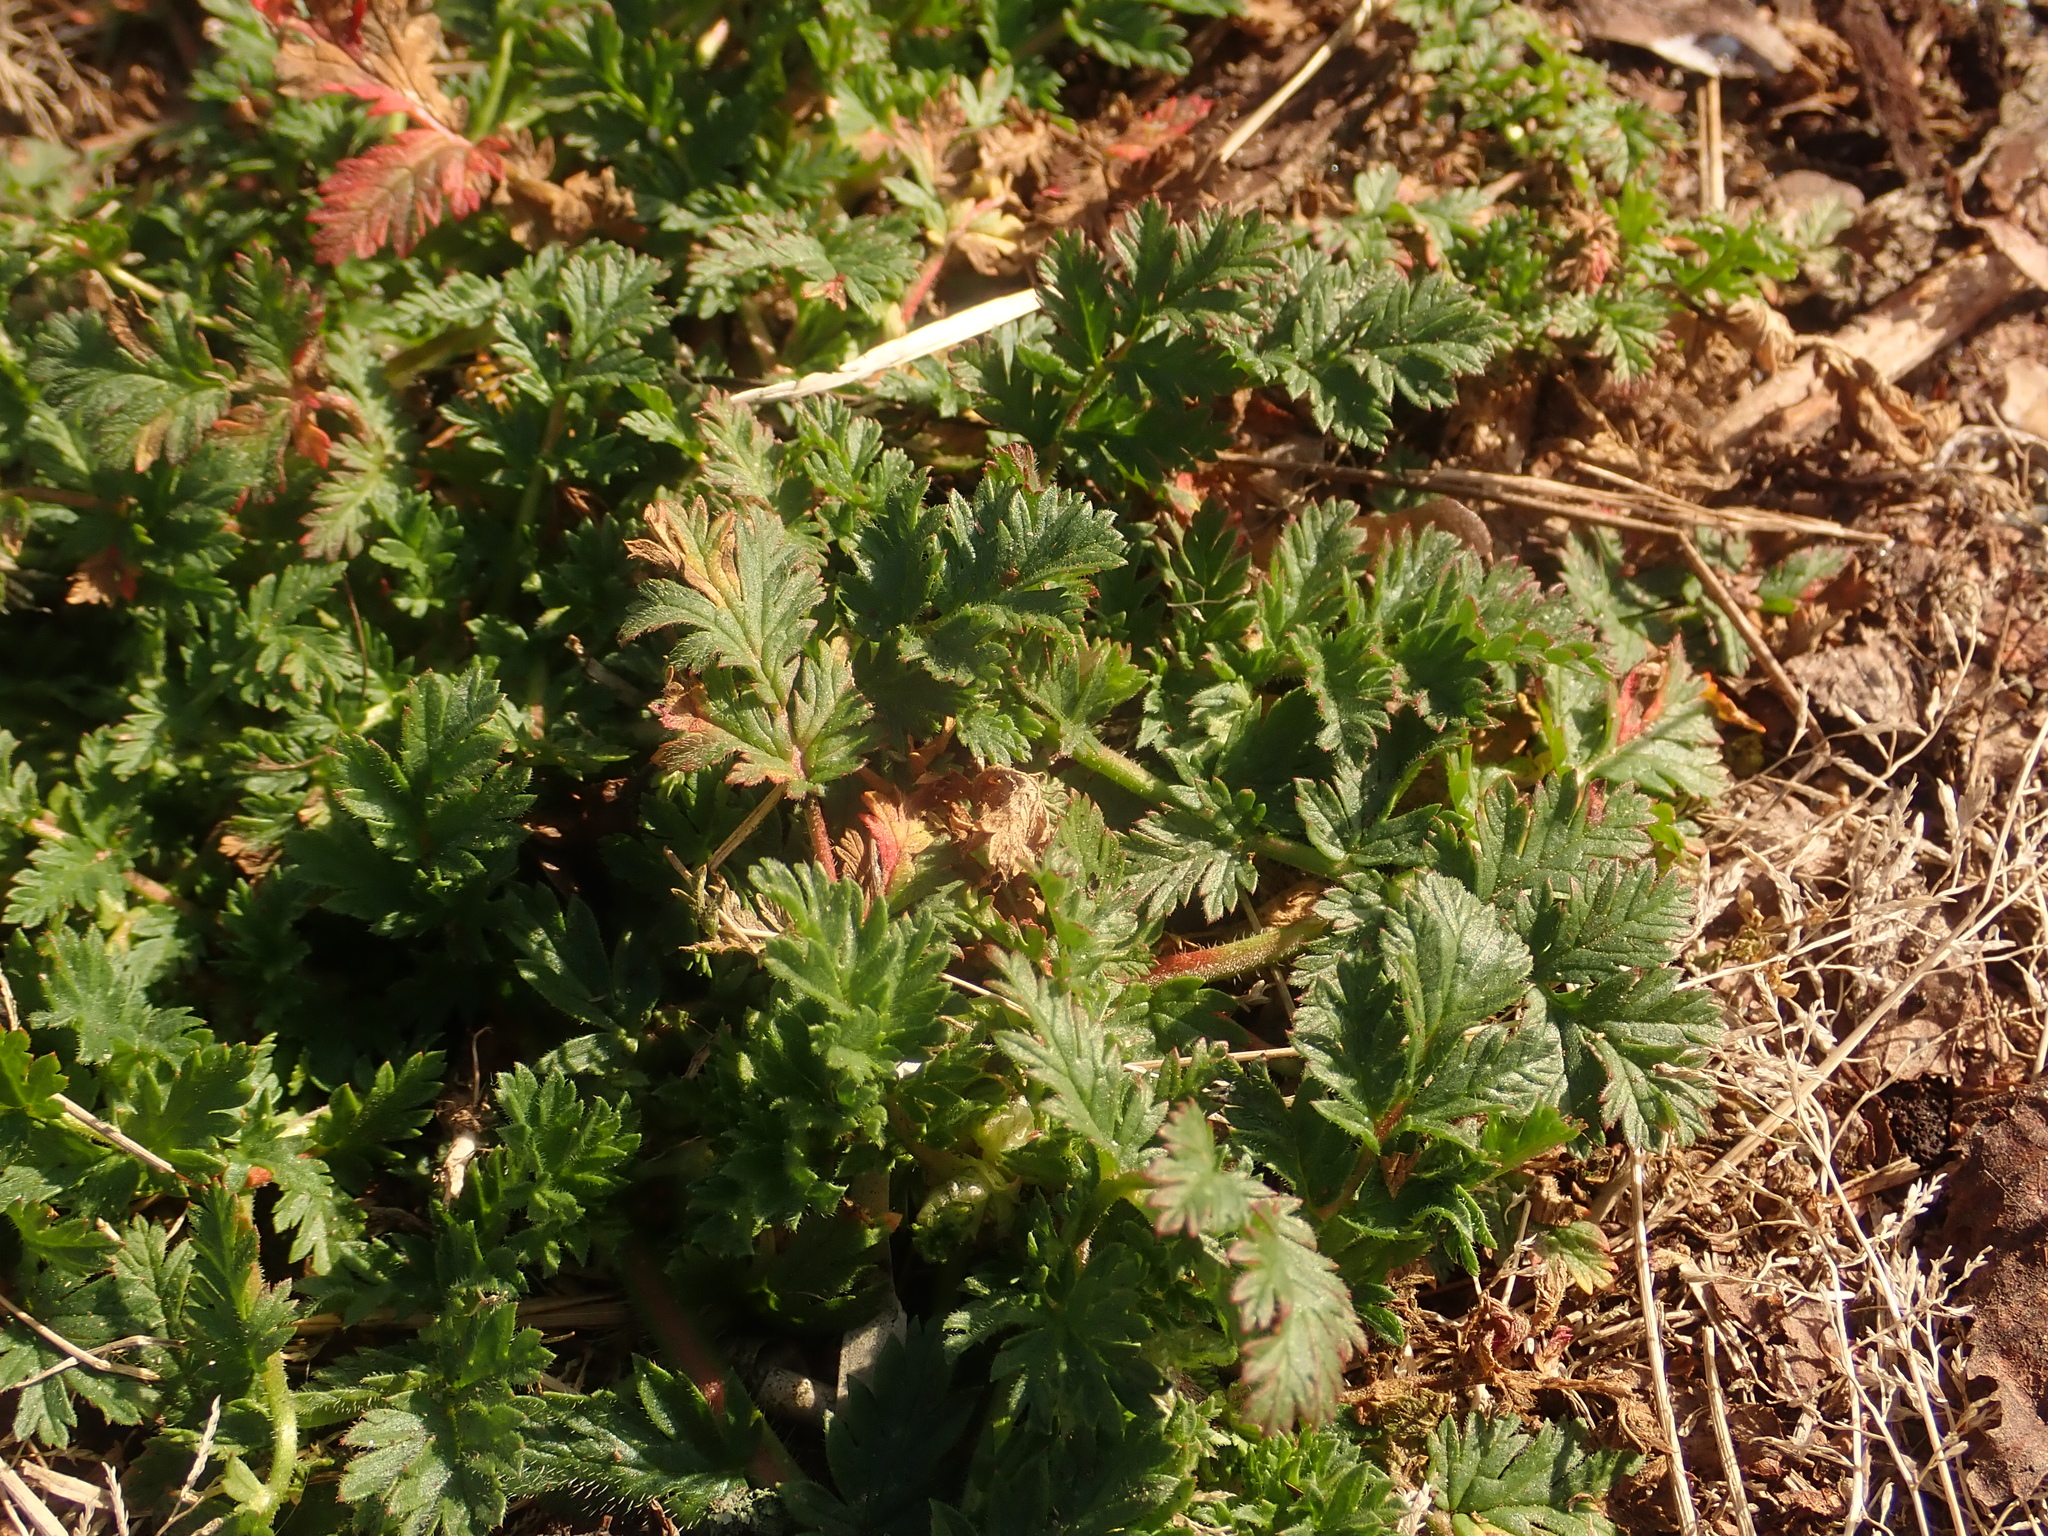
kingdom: Plantae
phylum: Tracheophyta
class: Magnoliopsida
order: Geraniales
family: Geraniaceae
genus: Erodium
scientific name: Erodium cicutarium
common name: Common stork's-bill
